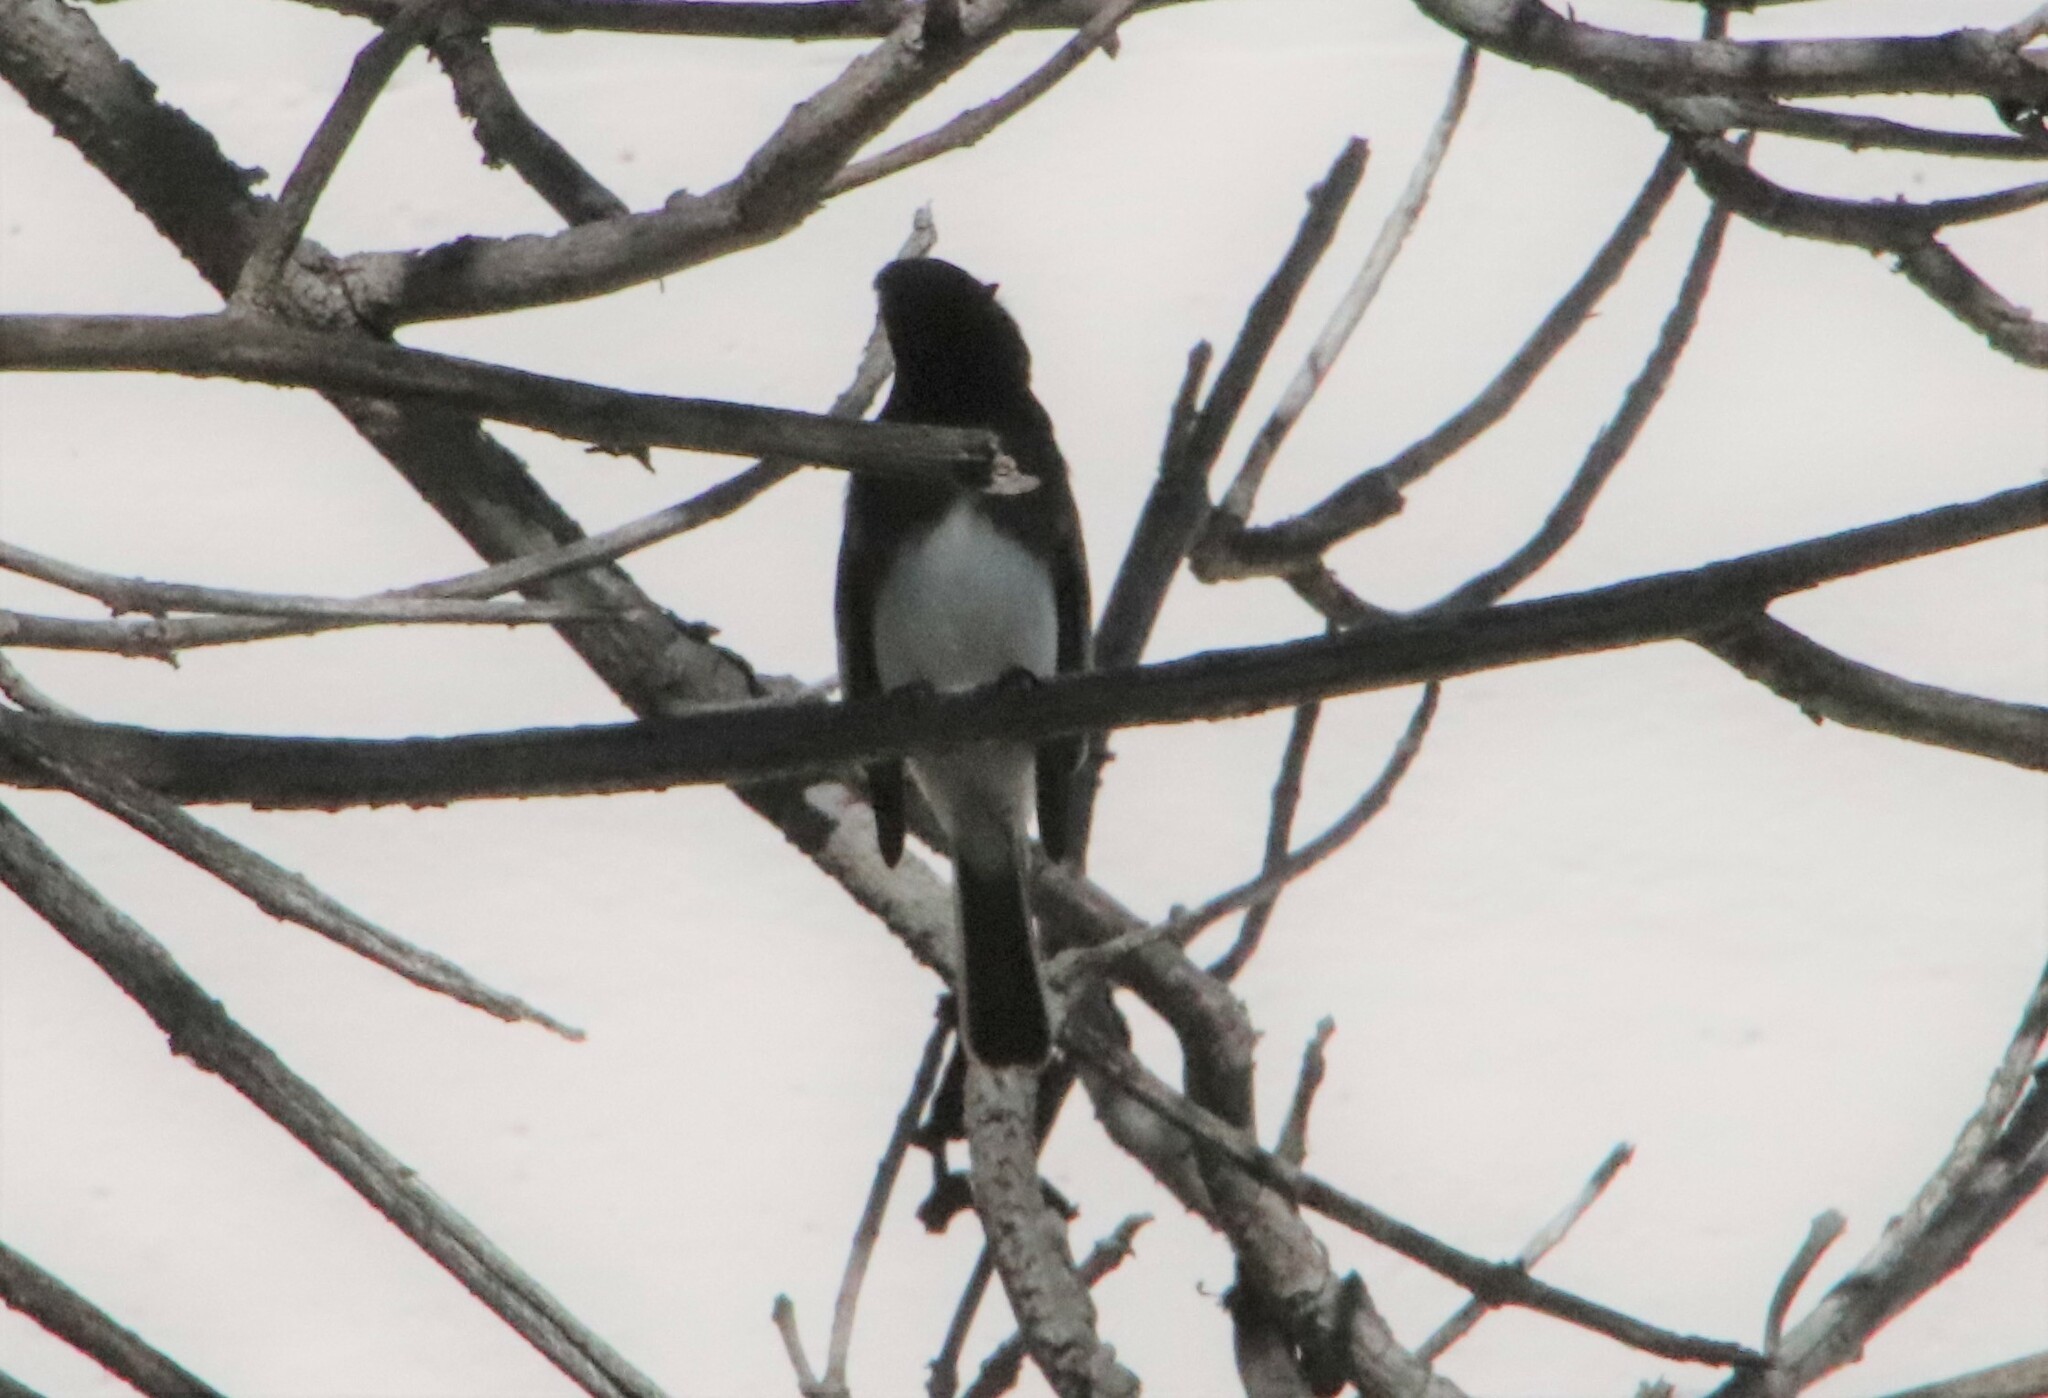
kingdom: Animalia
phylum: Chordata
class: Aves
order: Passeriformes
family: Tyrannidae
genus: Sayornis
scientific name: Sayornis nigricans
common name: Black phoebe
